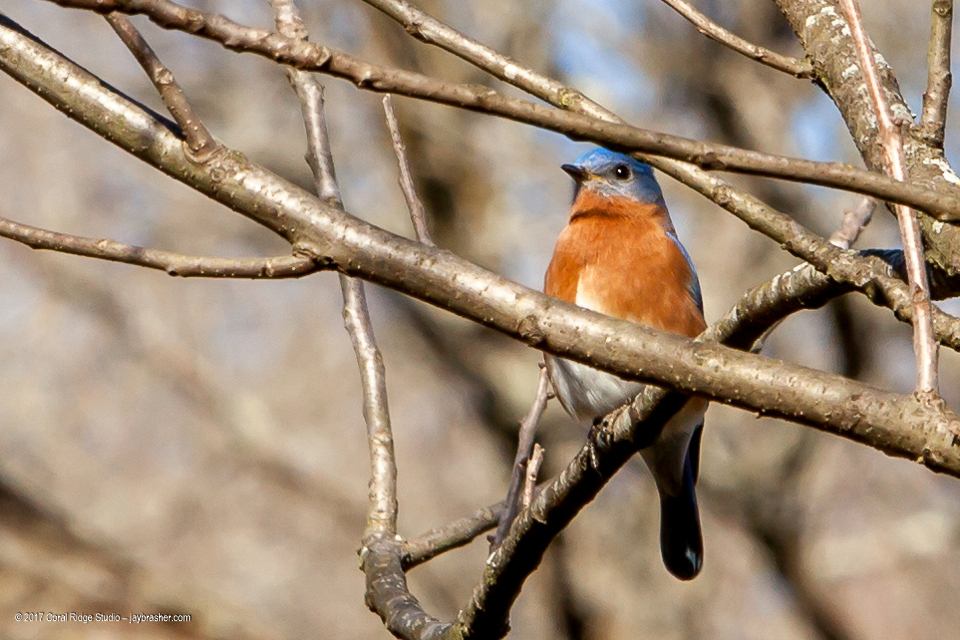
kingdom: Animalia
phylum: Chordata
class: Aves
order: Passeriformes
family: Turdidae
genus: Sialia
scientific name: Sialia sialis
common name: Eastern bluebird
